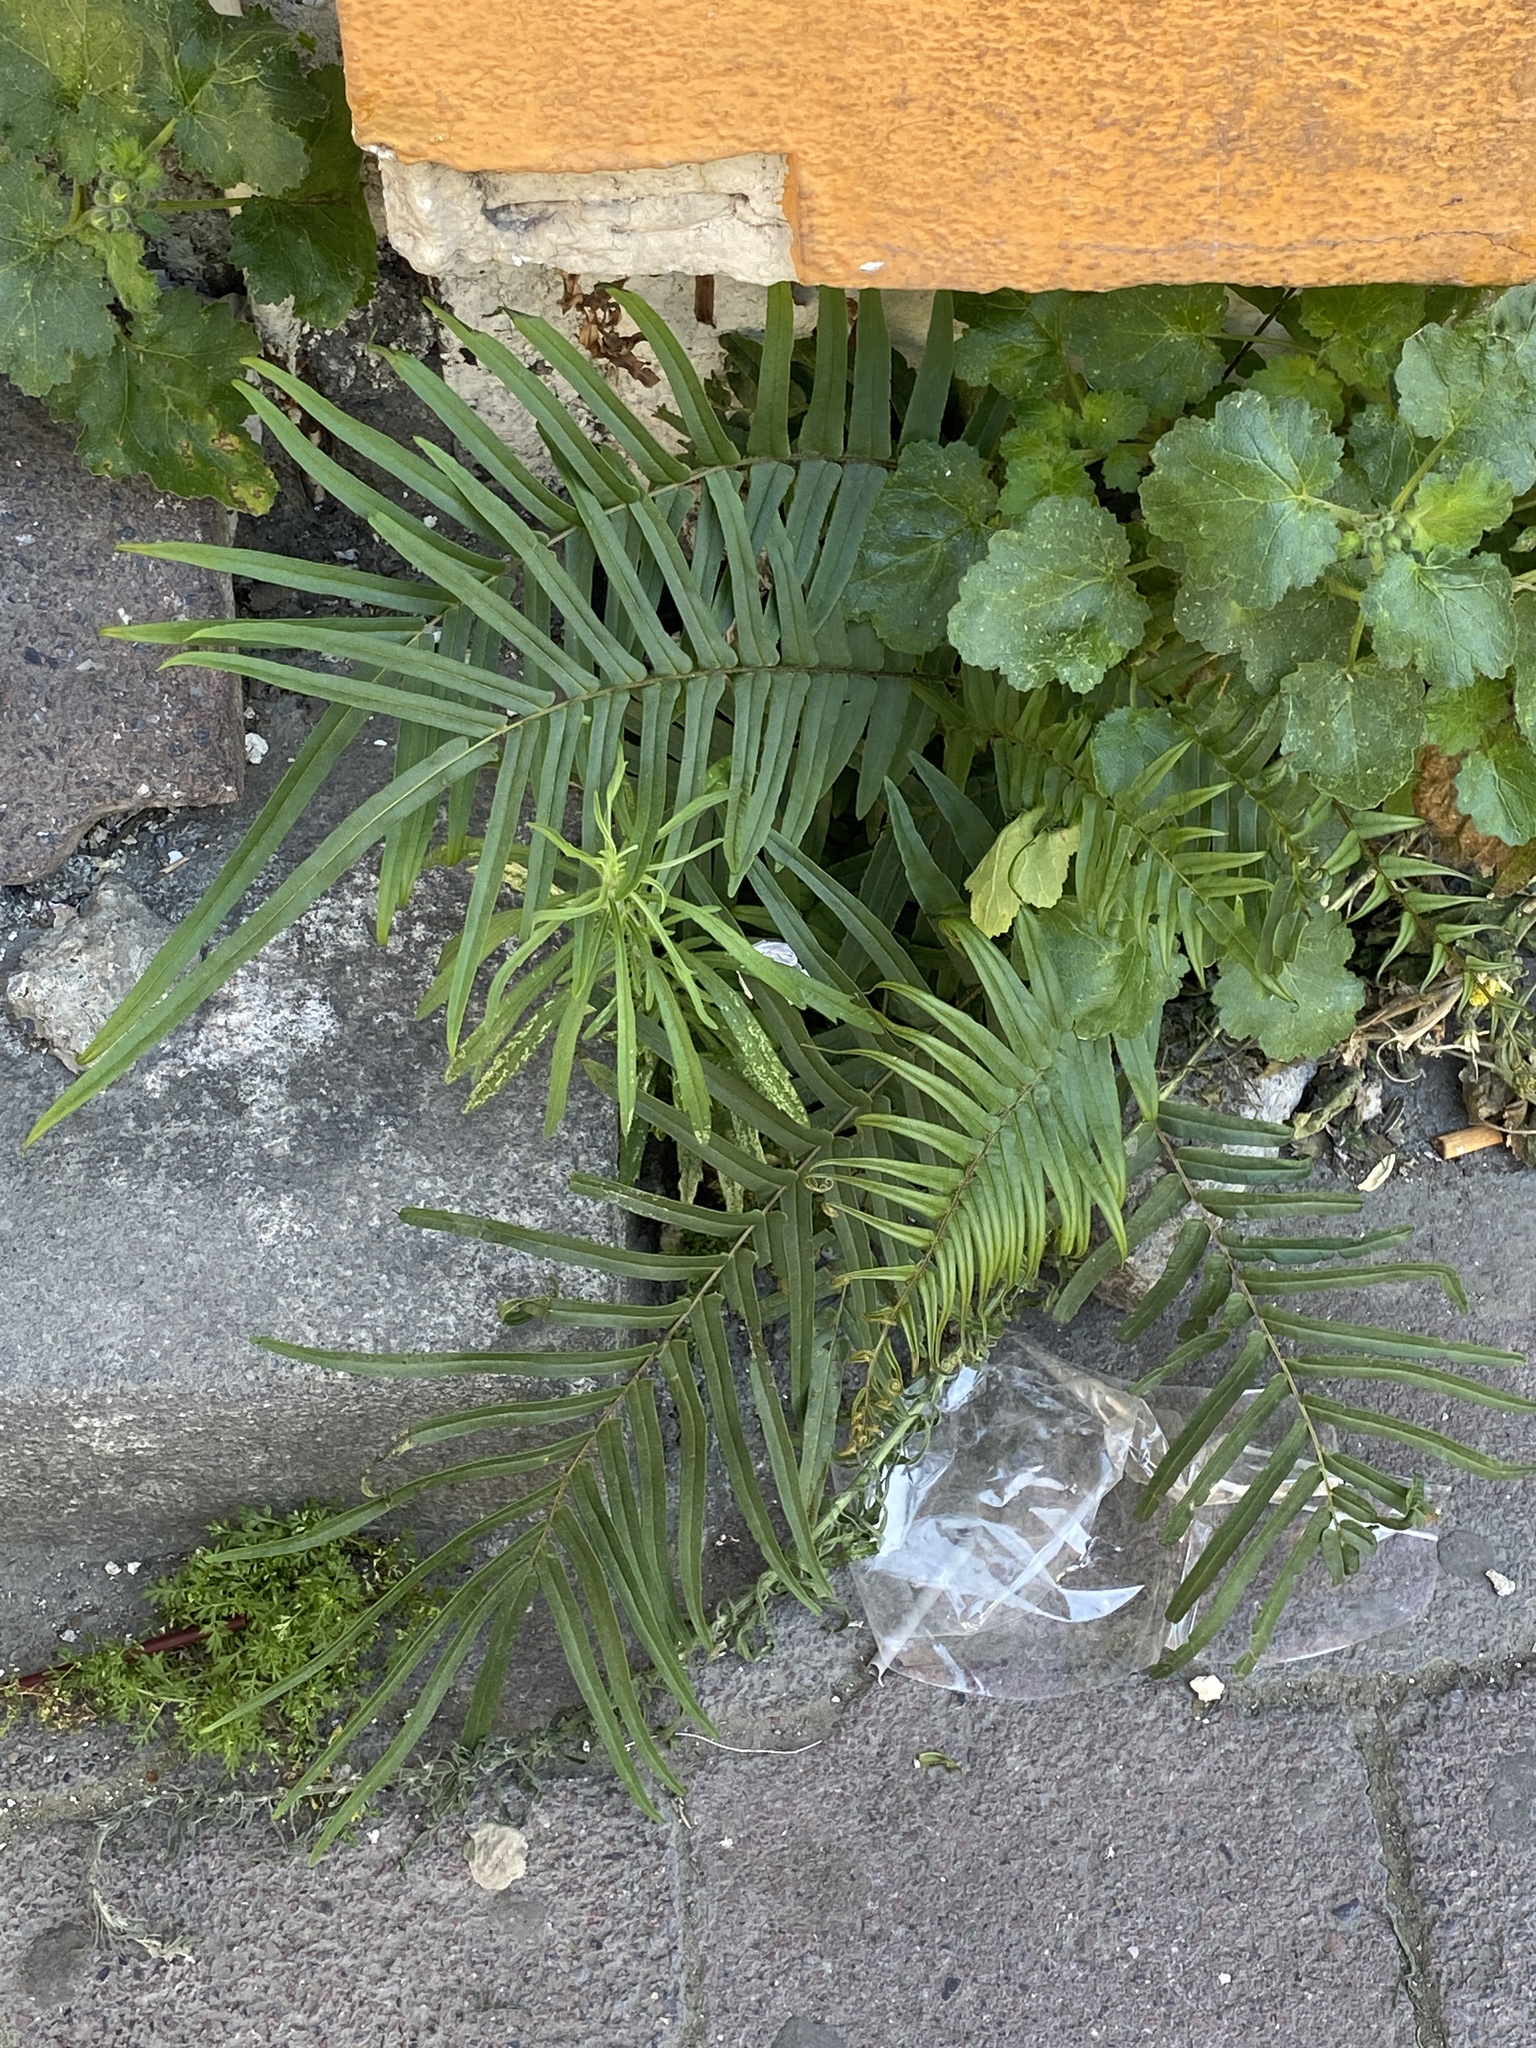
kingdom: Plantae
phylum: Tracheophyta
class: Polypodiopsida
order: Polypodiales
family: Pteridaceae
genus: Pteris
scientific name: Pteris vittata
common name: Ladder brake
